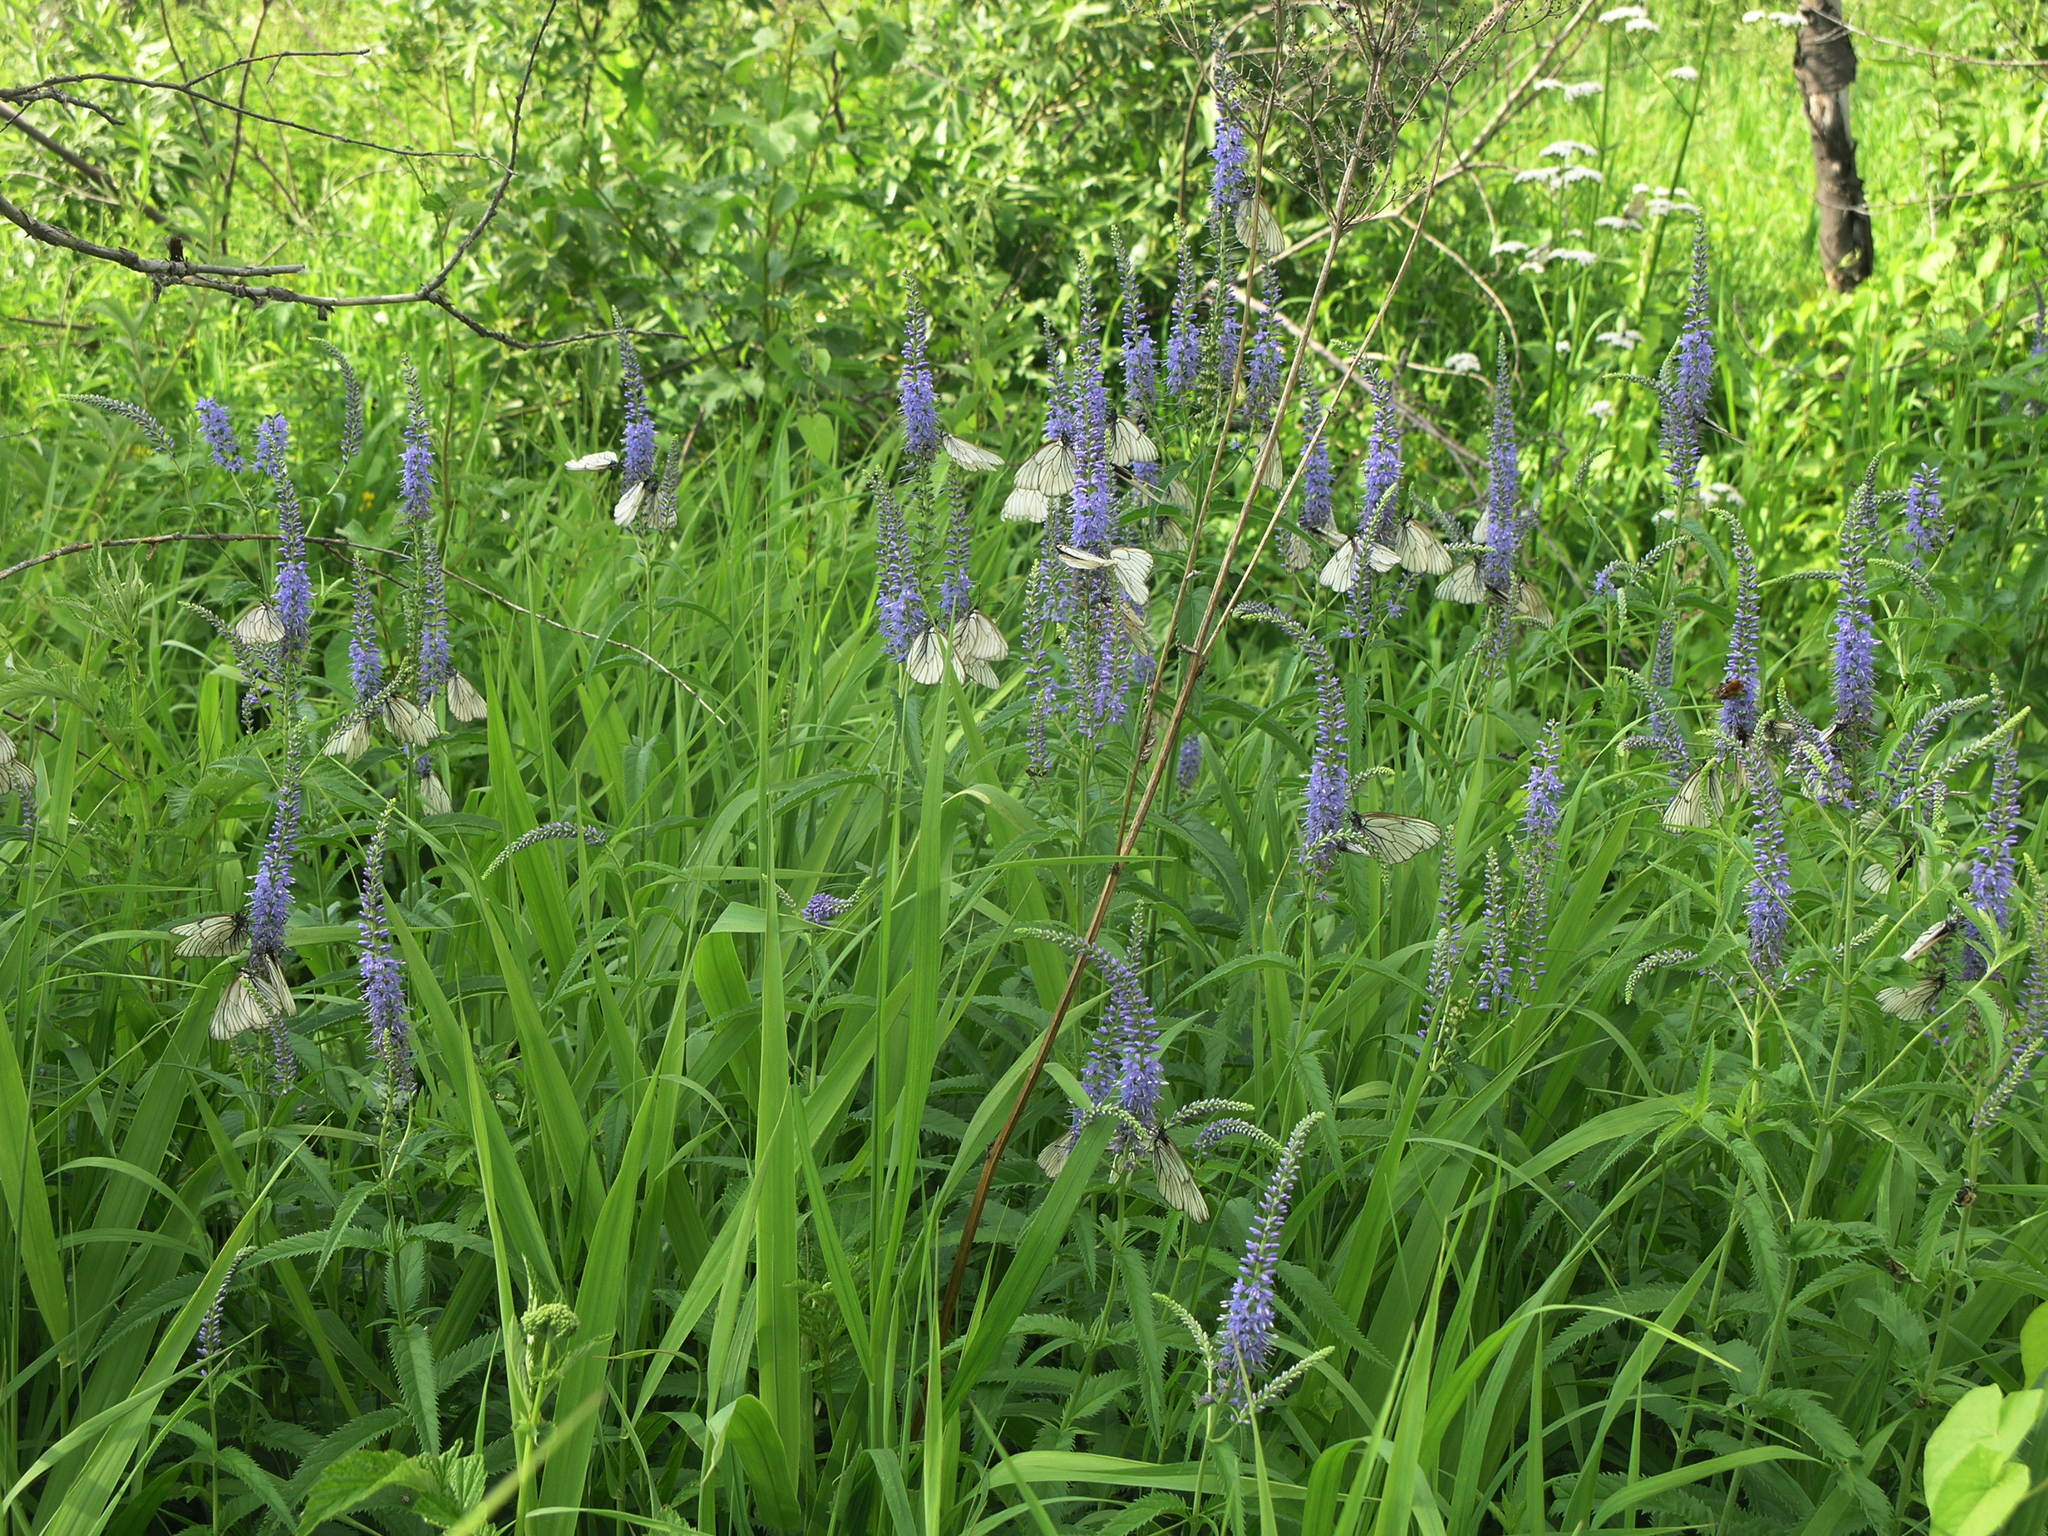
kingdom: Plantae
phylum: Tracheophyta
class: Magnoliopsida
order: Lamiales
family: Plantaginaceae
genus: Veronica
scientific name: Veronica longifolia
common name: Garden speedwell
